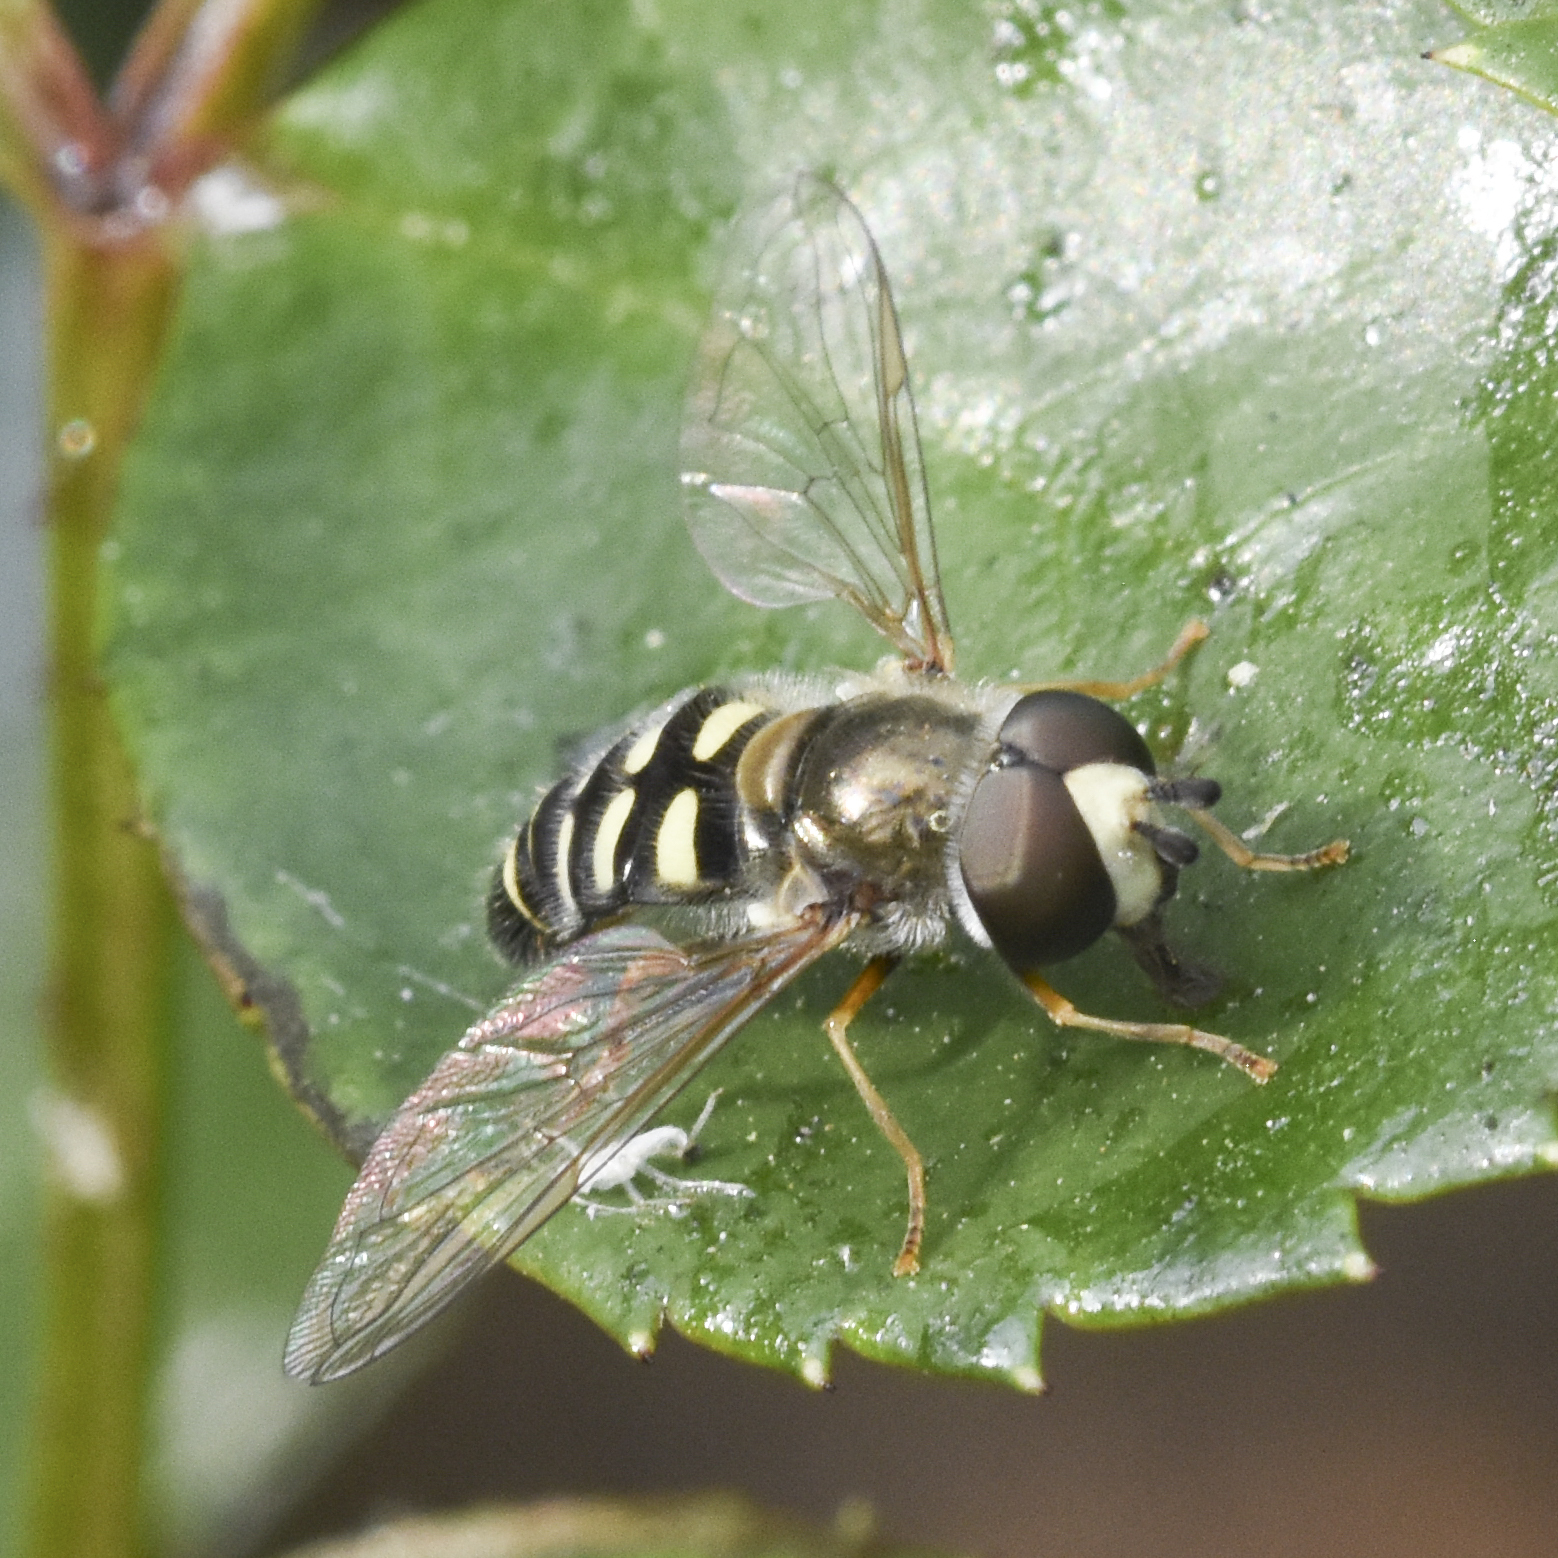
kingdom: Animalia
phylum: Arthropoda
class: Insecta
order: Diptera
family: Syrphidae
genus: Eupeodes
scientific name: Eupeodes volucris
